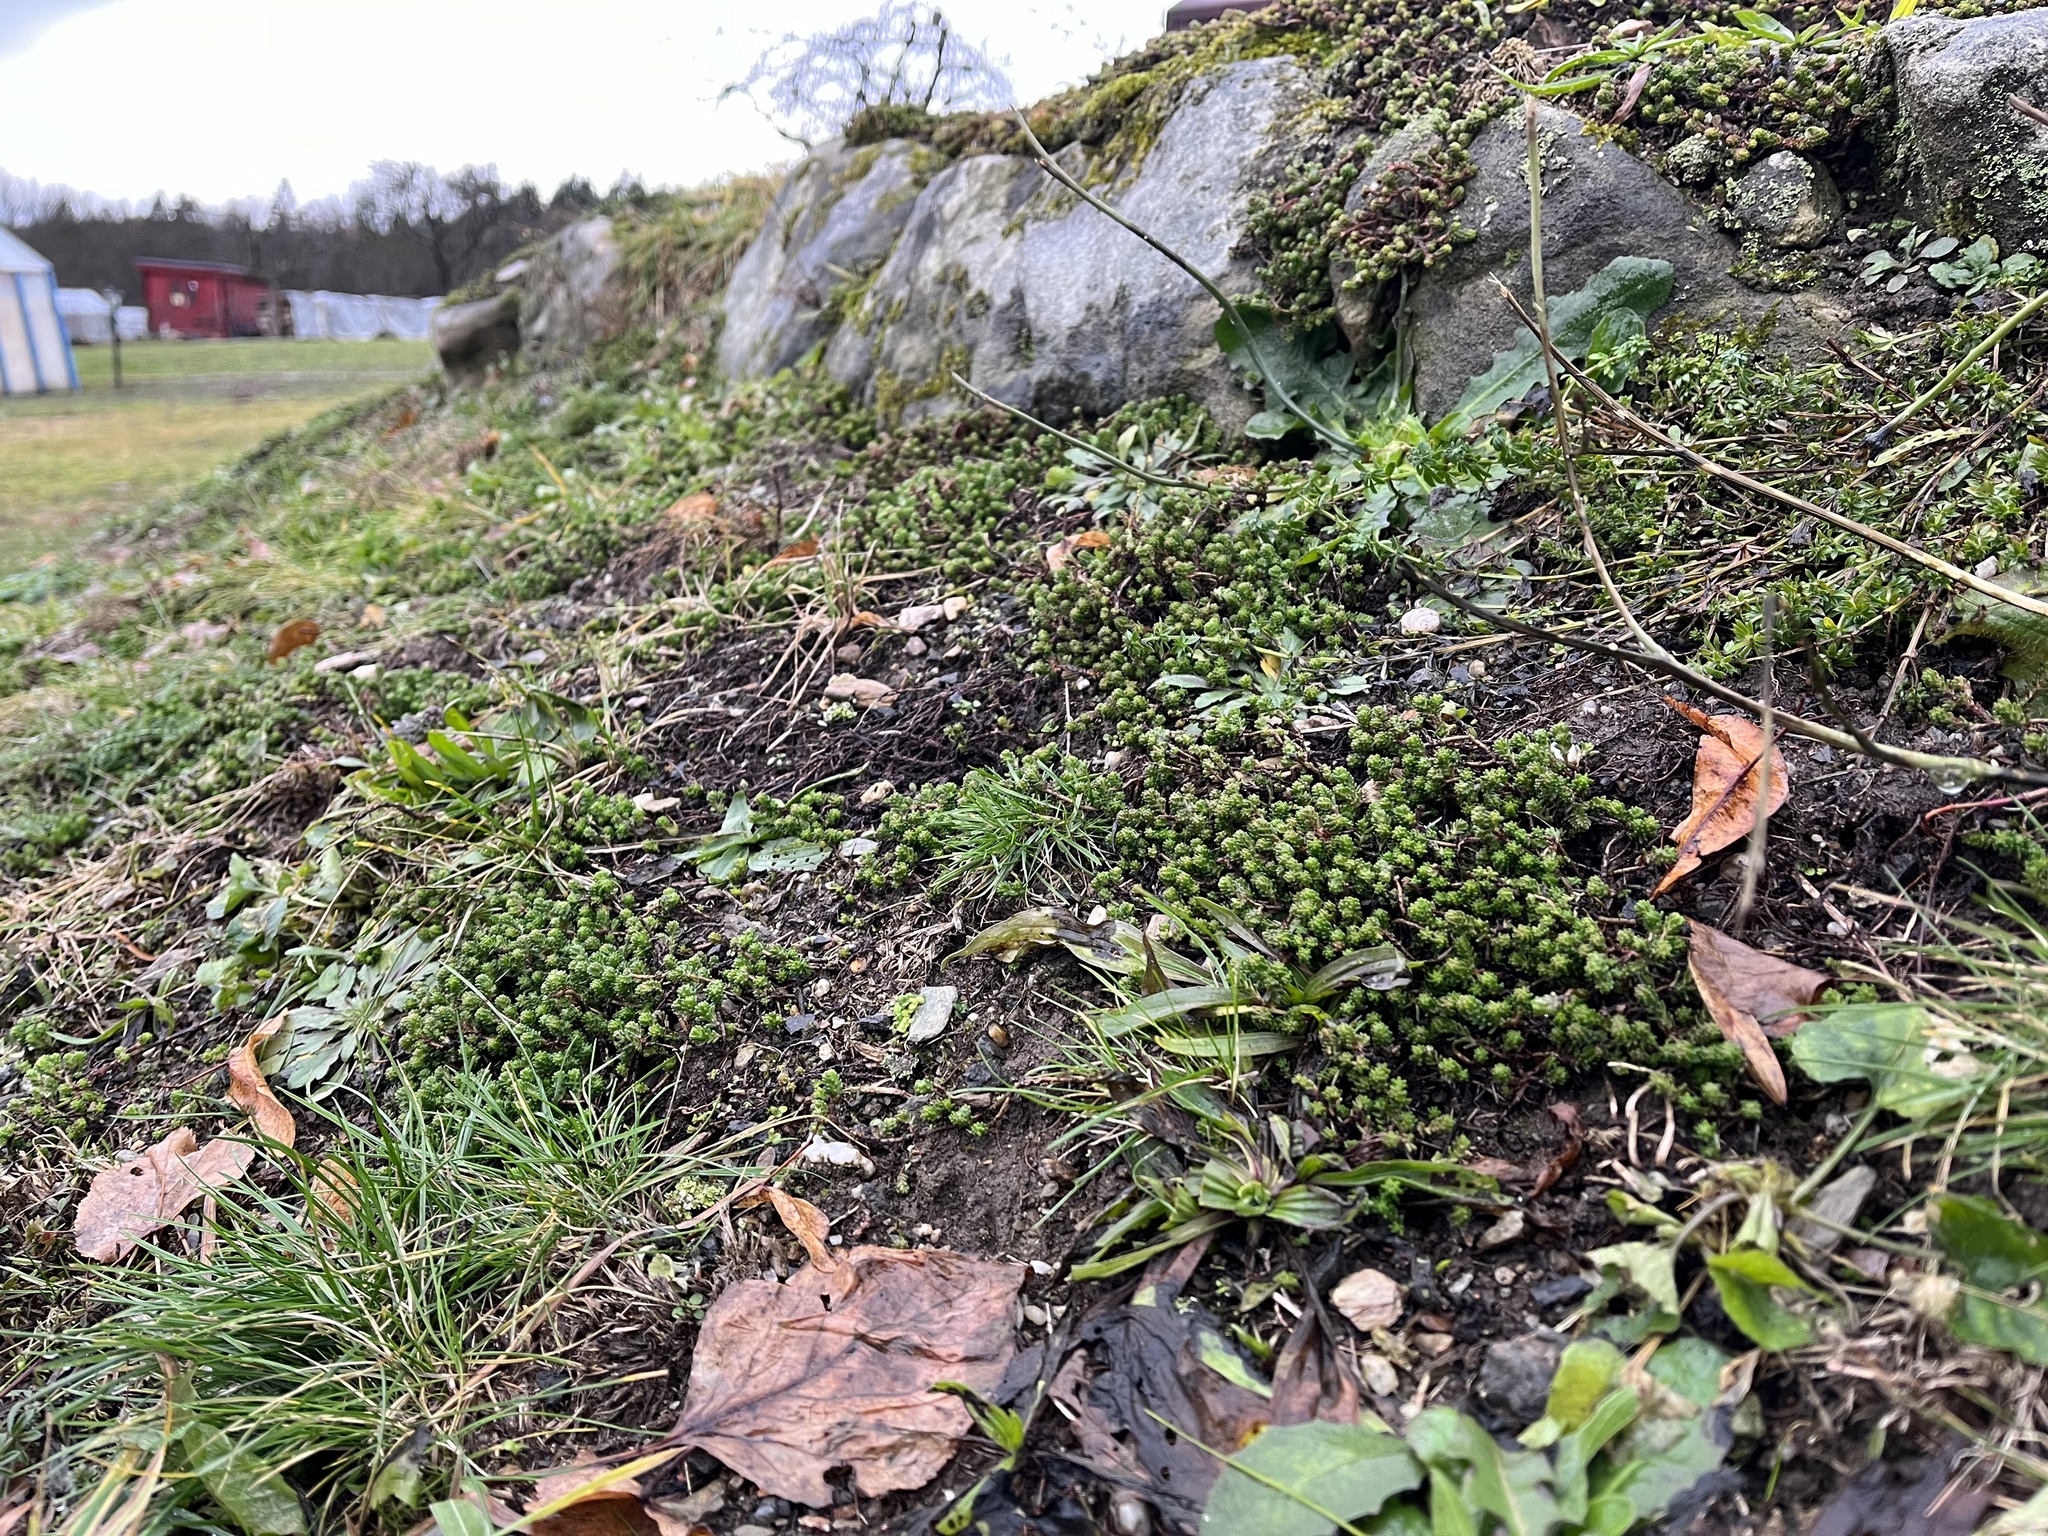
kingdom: Plantae
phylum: Tracheophyta
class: Magnoliopsida
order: Saxifragales
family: Crassulaceae
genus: Sedum
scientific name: Sedum sexangulare
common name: Tasteless stonecrop
